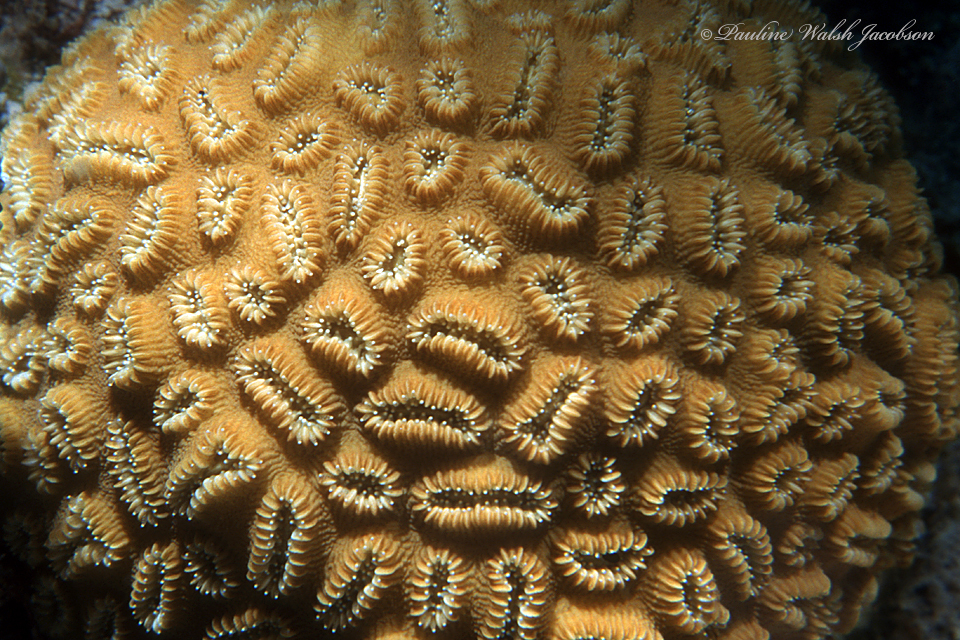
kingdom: Animalia
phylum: Cnidaria
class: Anthozoa
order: Scleractinia
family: Meandrinidae
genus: Dichocoenia
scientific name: Dichocoenia stokesii
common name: Pineapple coral
